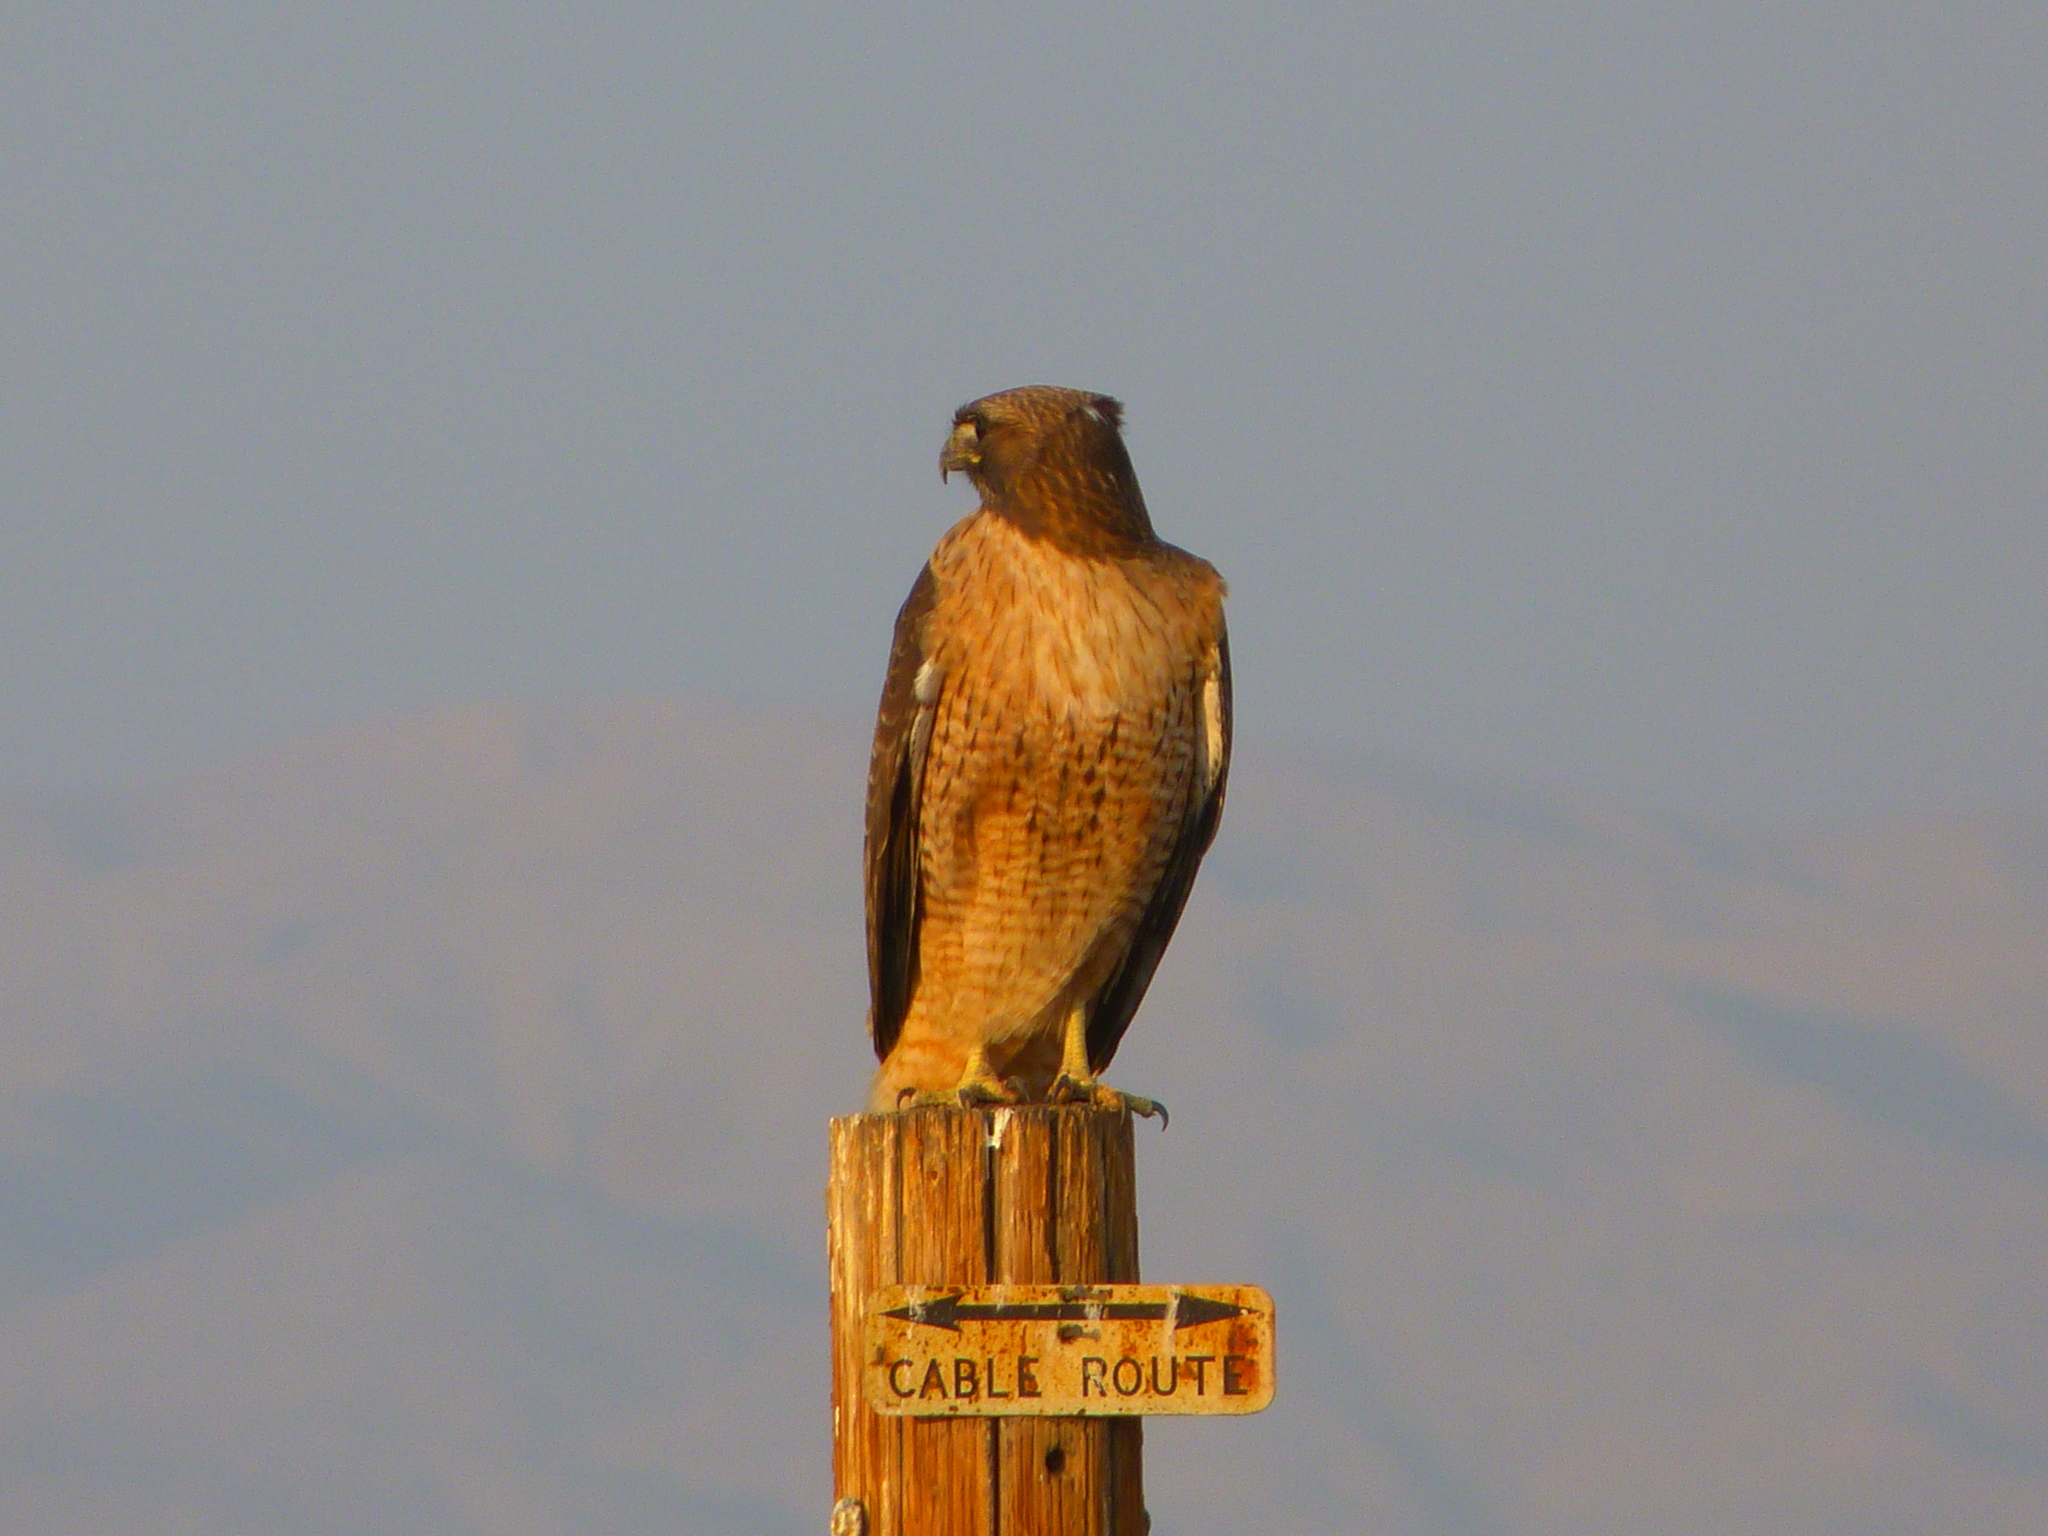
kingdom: Animalia
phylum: Chordata
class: Aves
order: Accipitriformes
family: Accipitridae
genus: Buteo
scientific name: Buteo jamaicensis
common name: Red-tailed hawk
